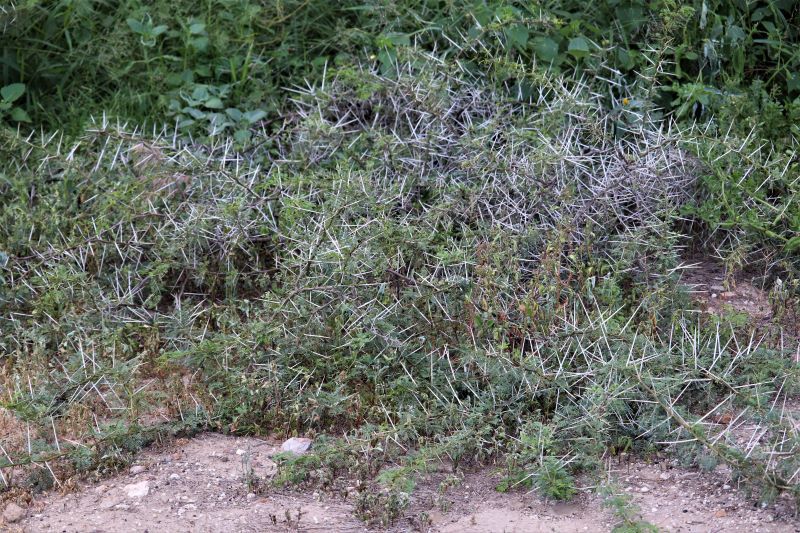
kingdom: Plantae
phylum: Tracheophyta
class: Magnoliopsida
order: Fabales
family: Fabaceae
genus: Vachellia
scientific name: Vachellia karroo
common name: Sweet thorn
